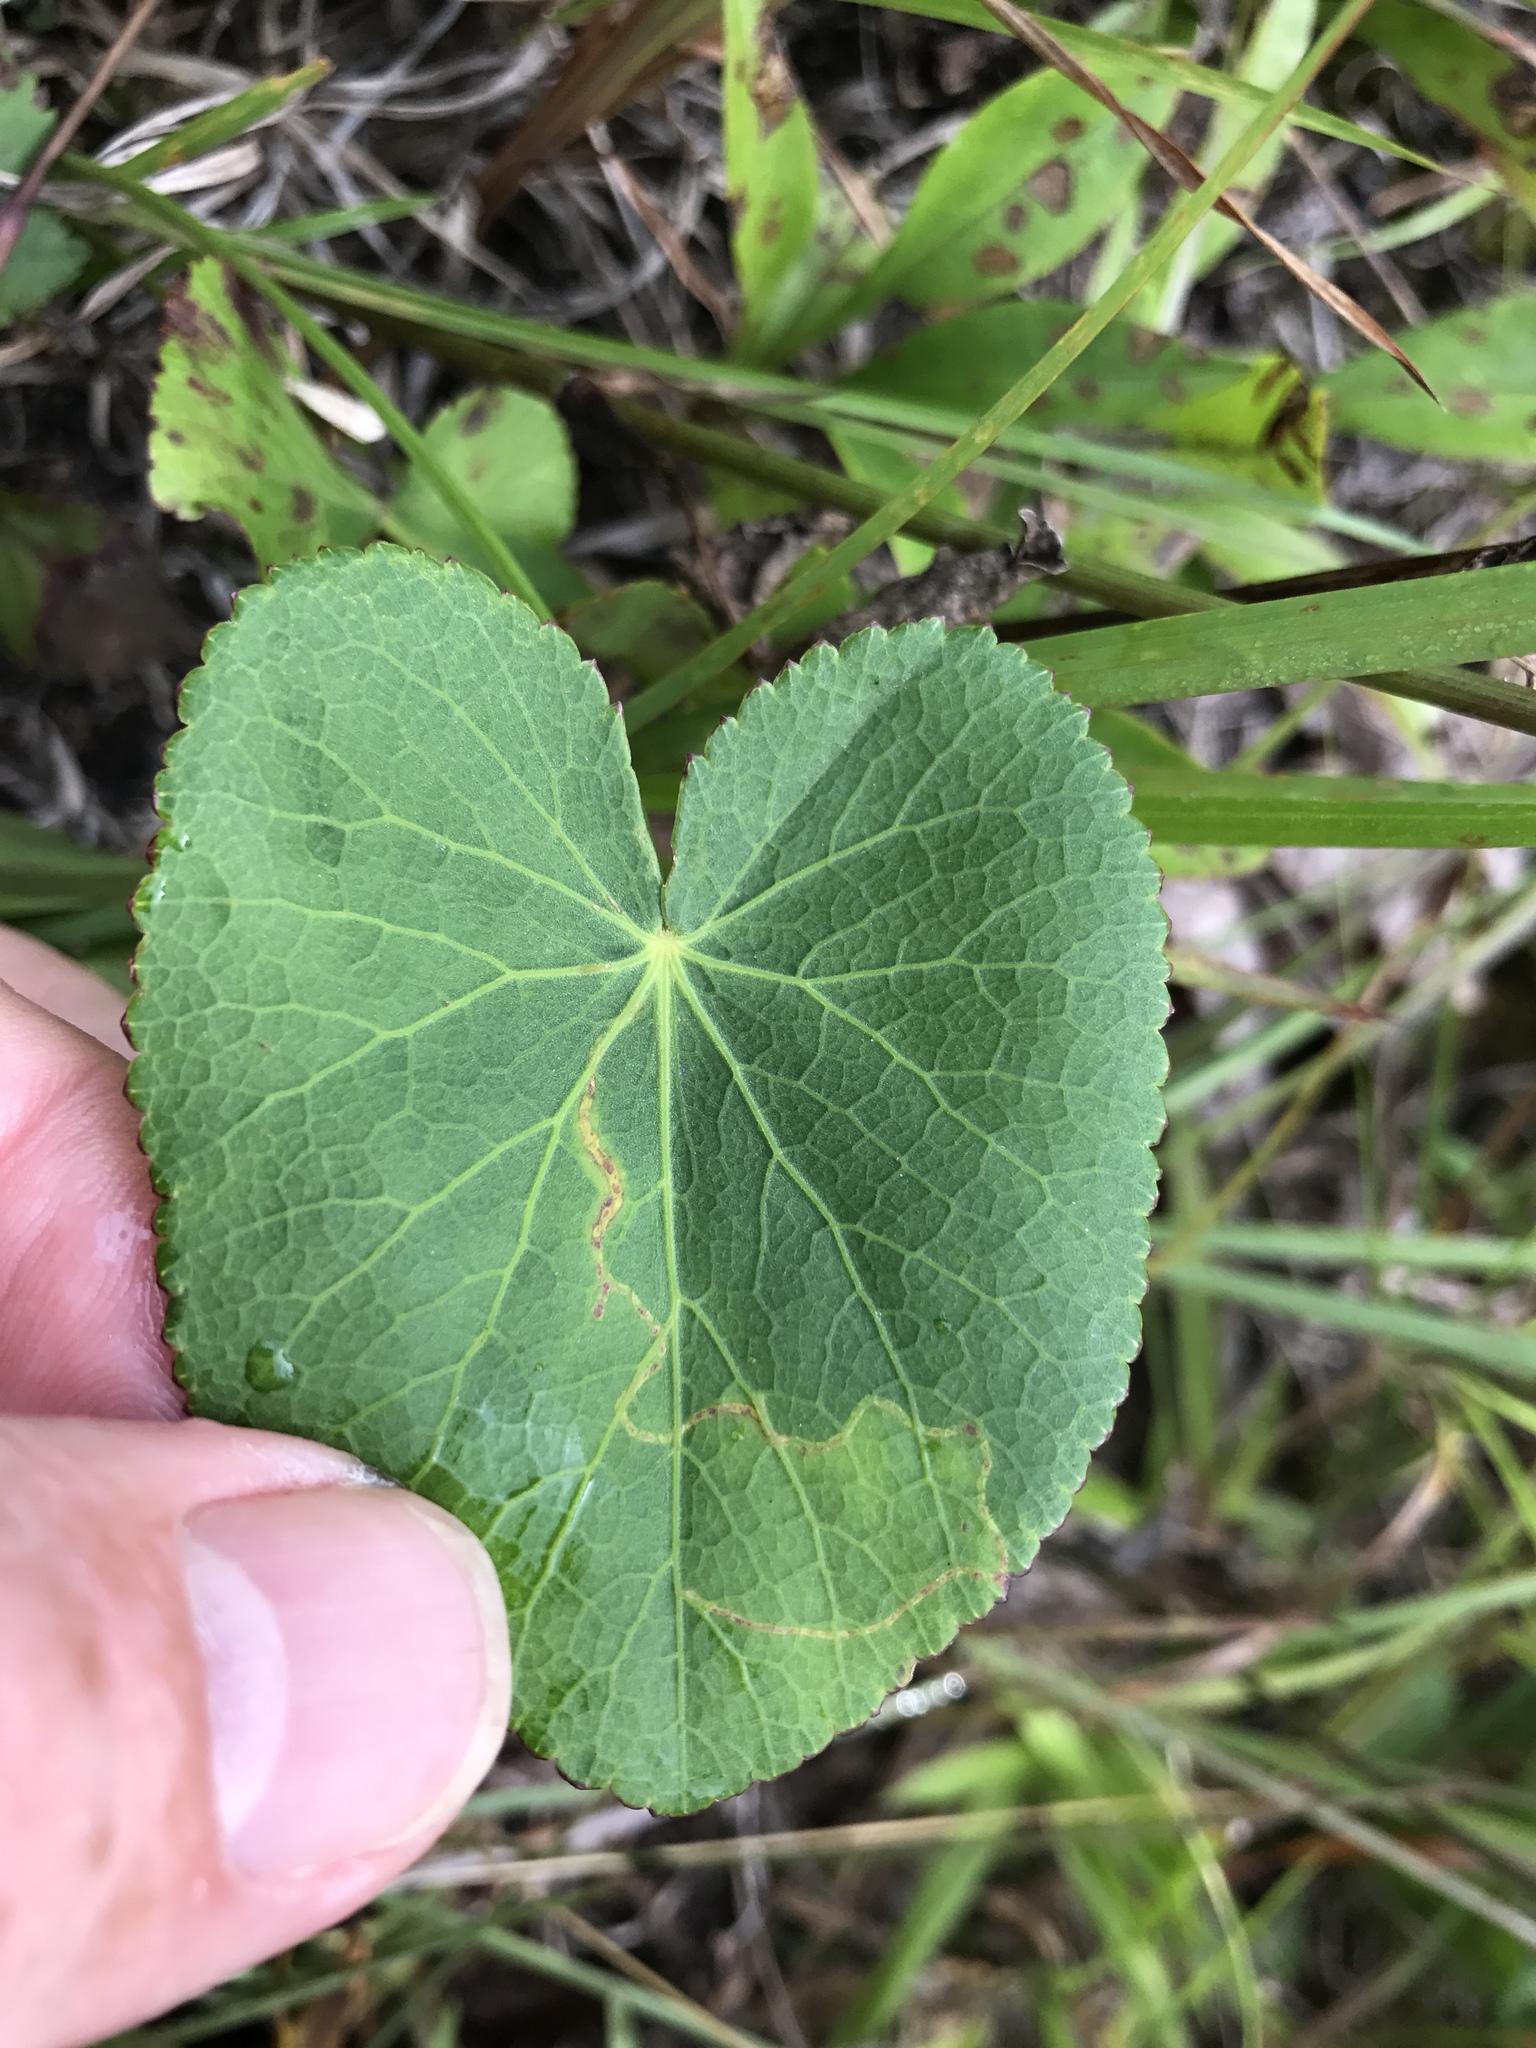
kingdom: Plantae
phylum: Tracheophyta
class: Magnoliopsida
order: Apiales
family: Apiaceae
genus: Zizia
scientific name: Zizia aptera
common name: Heart-leaved alexanders
